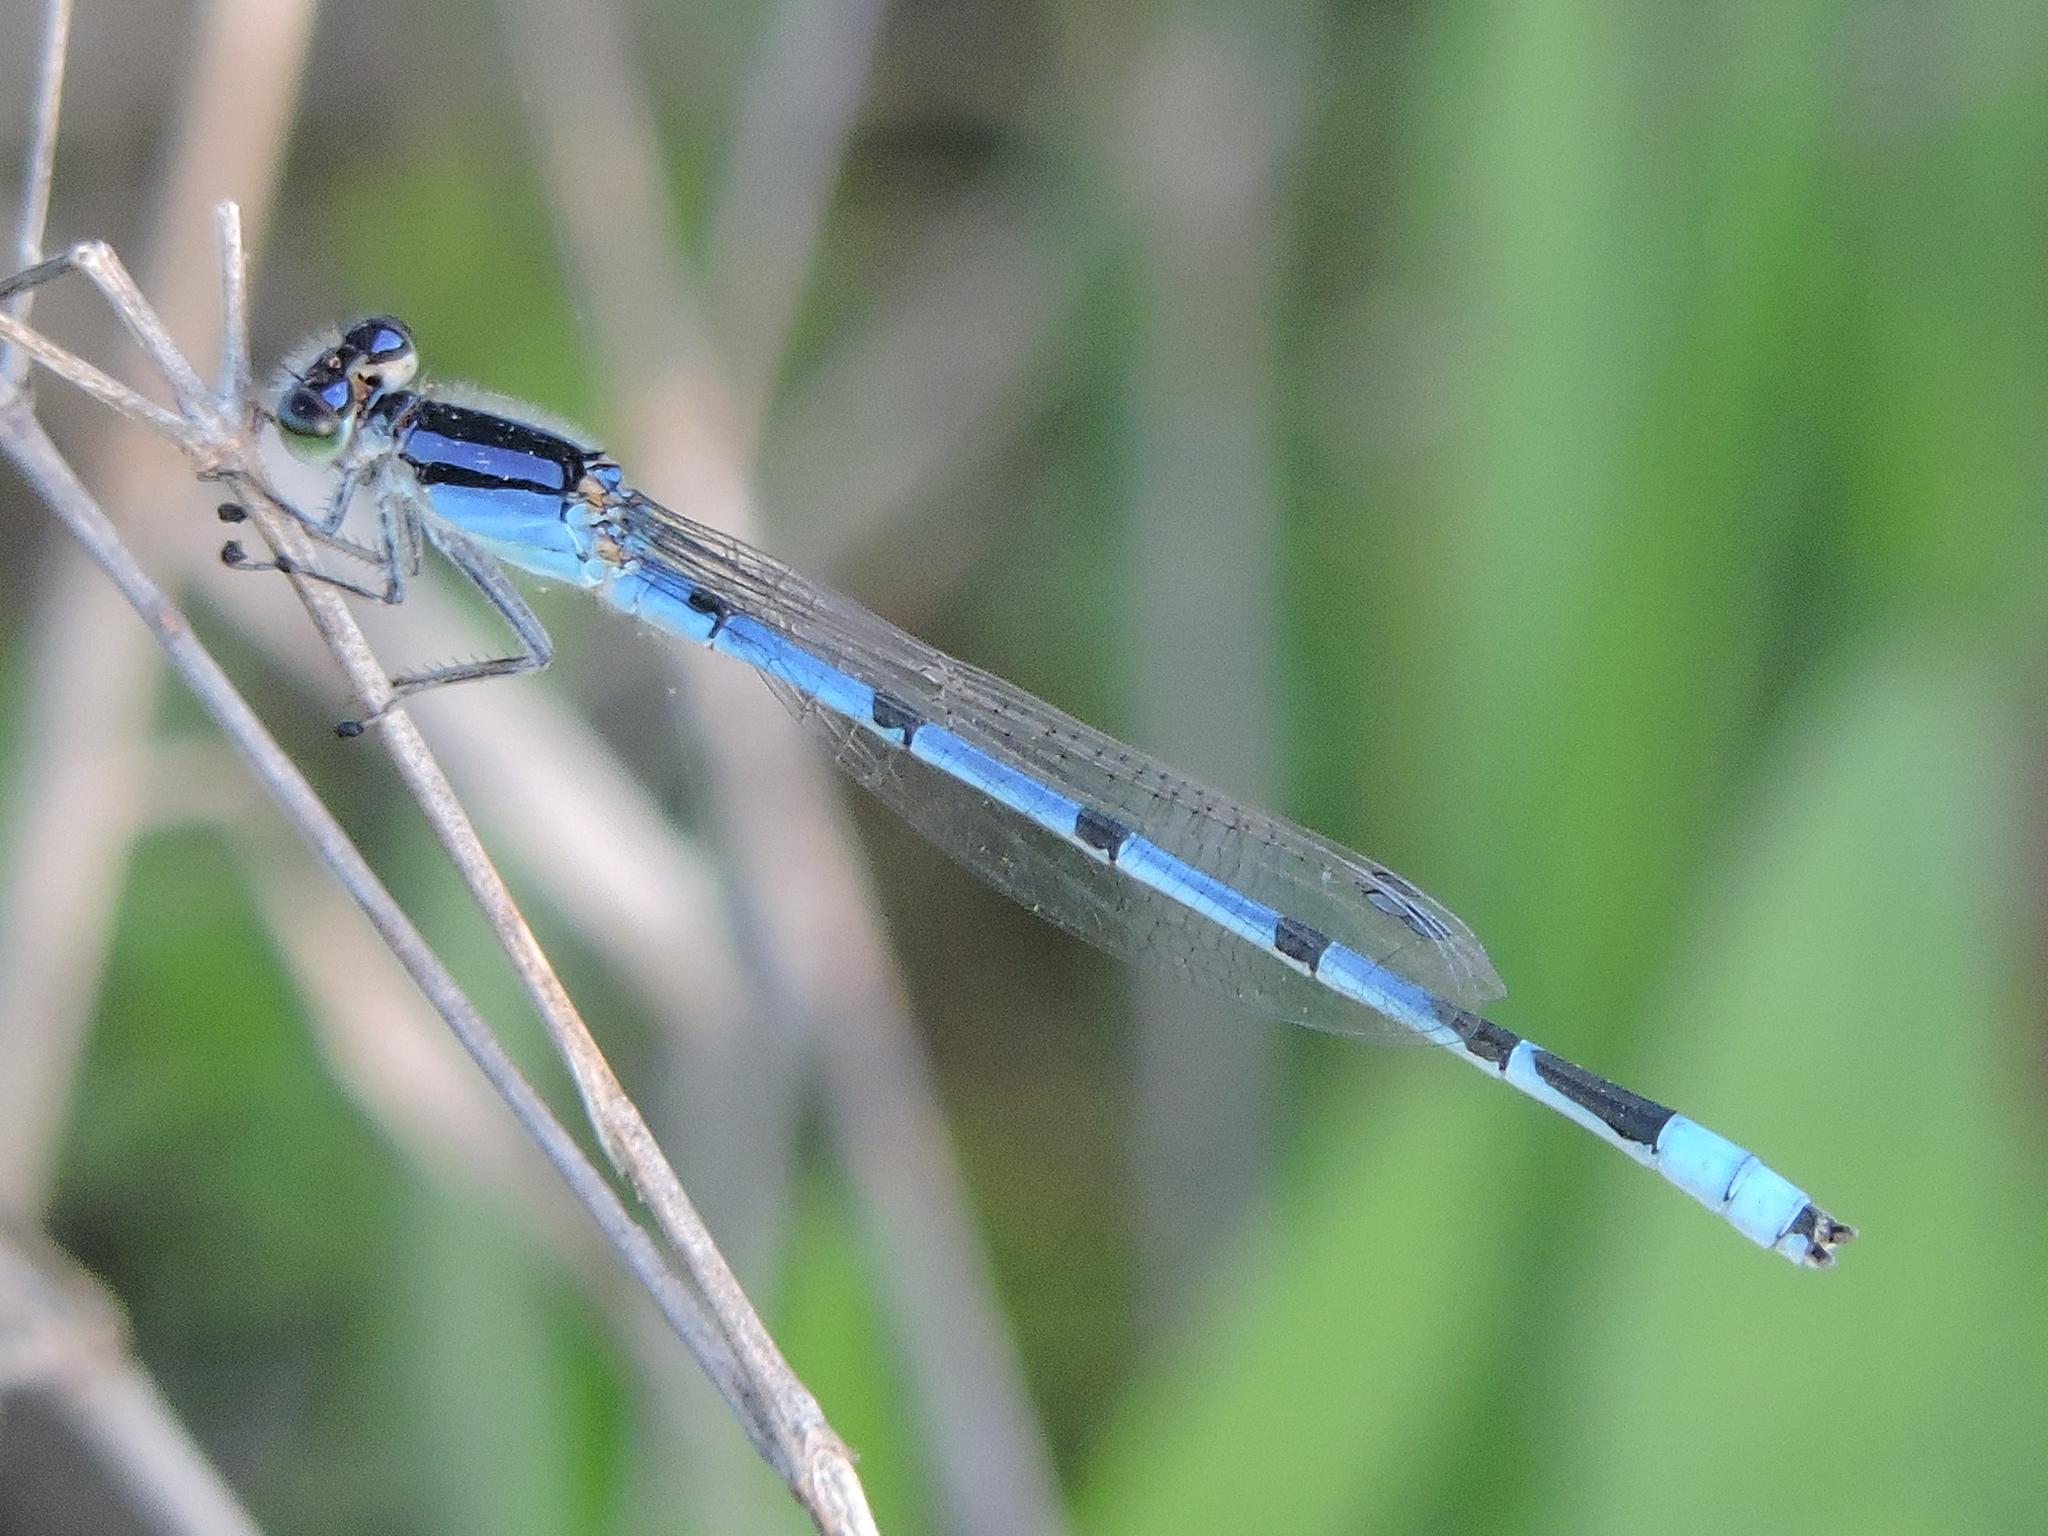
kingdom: Animalia
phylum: Arthropoda
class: Insecta
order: Odonata
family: Coenagrionidae
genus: Enallagma
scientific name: Enallagma civile
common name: Damselfly
